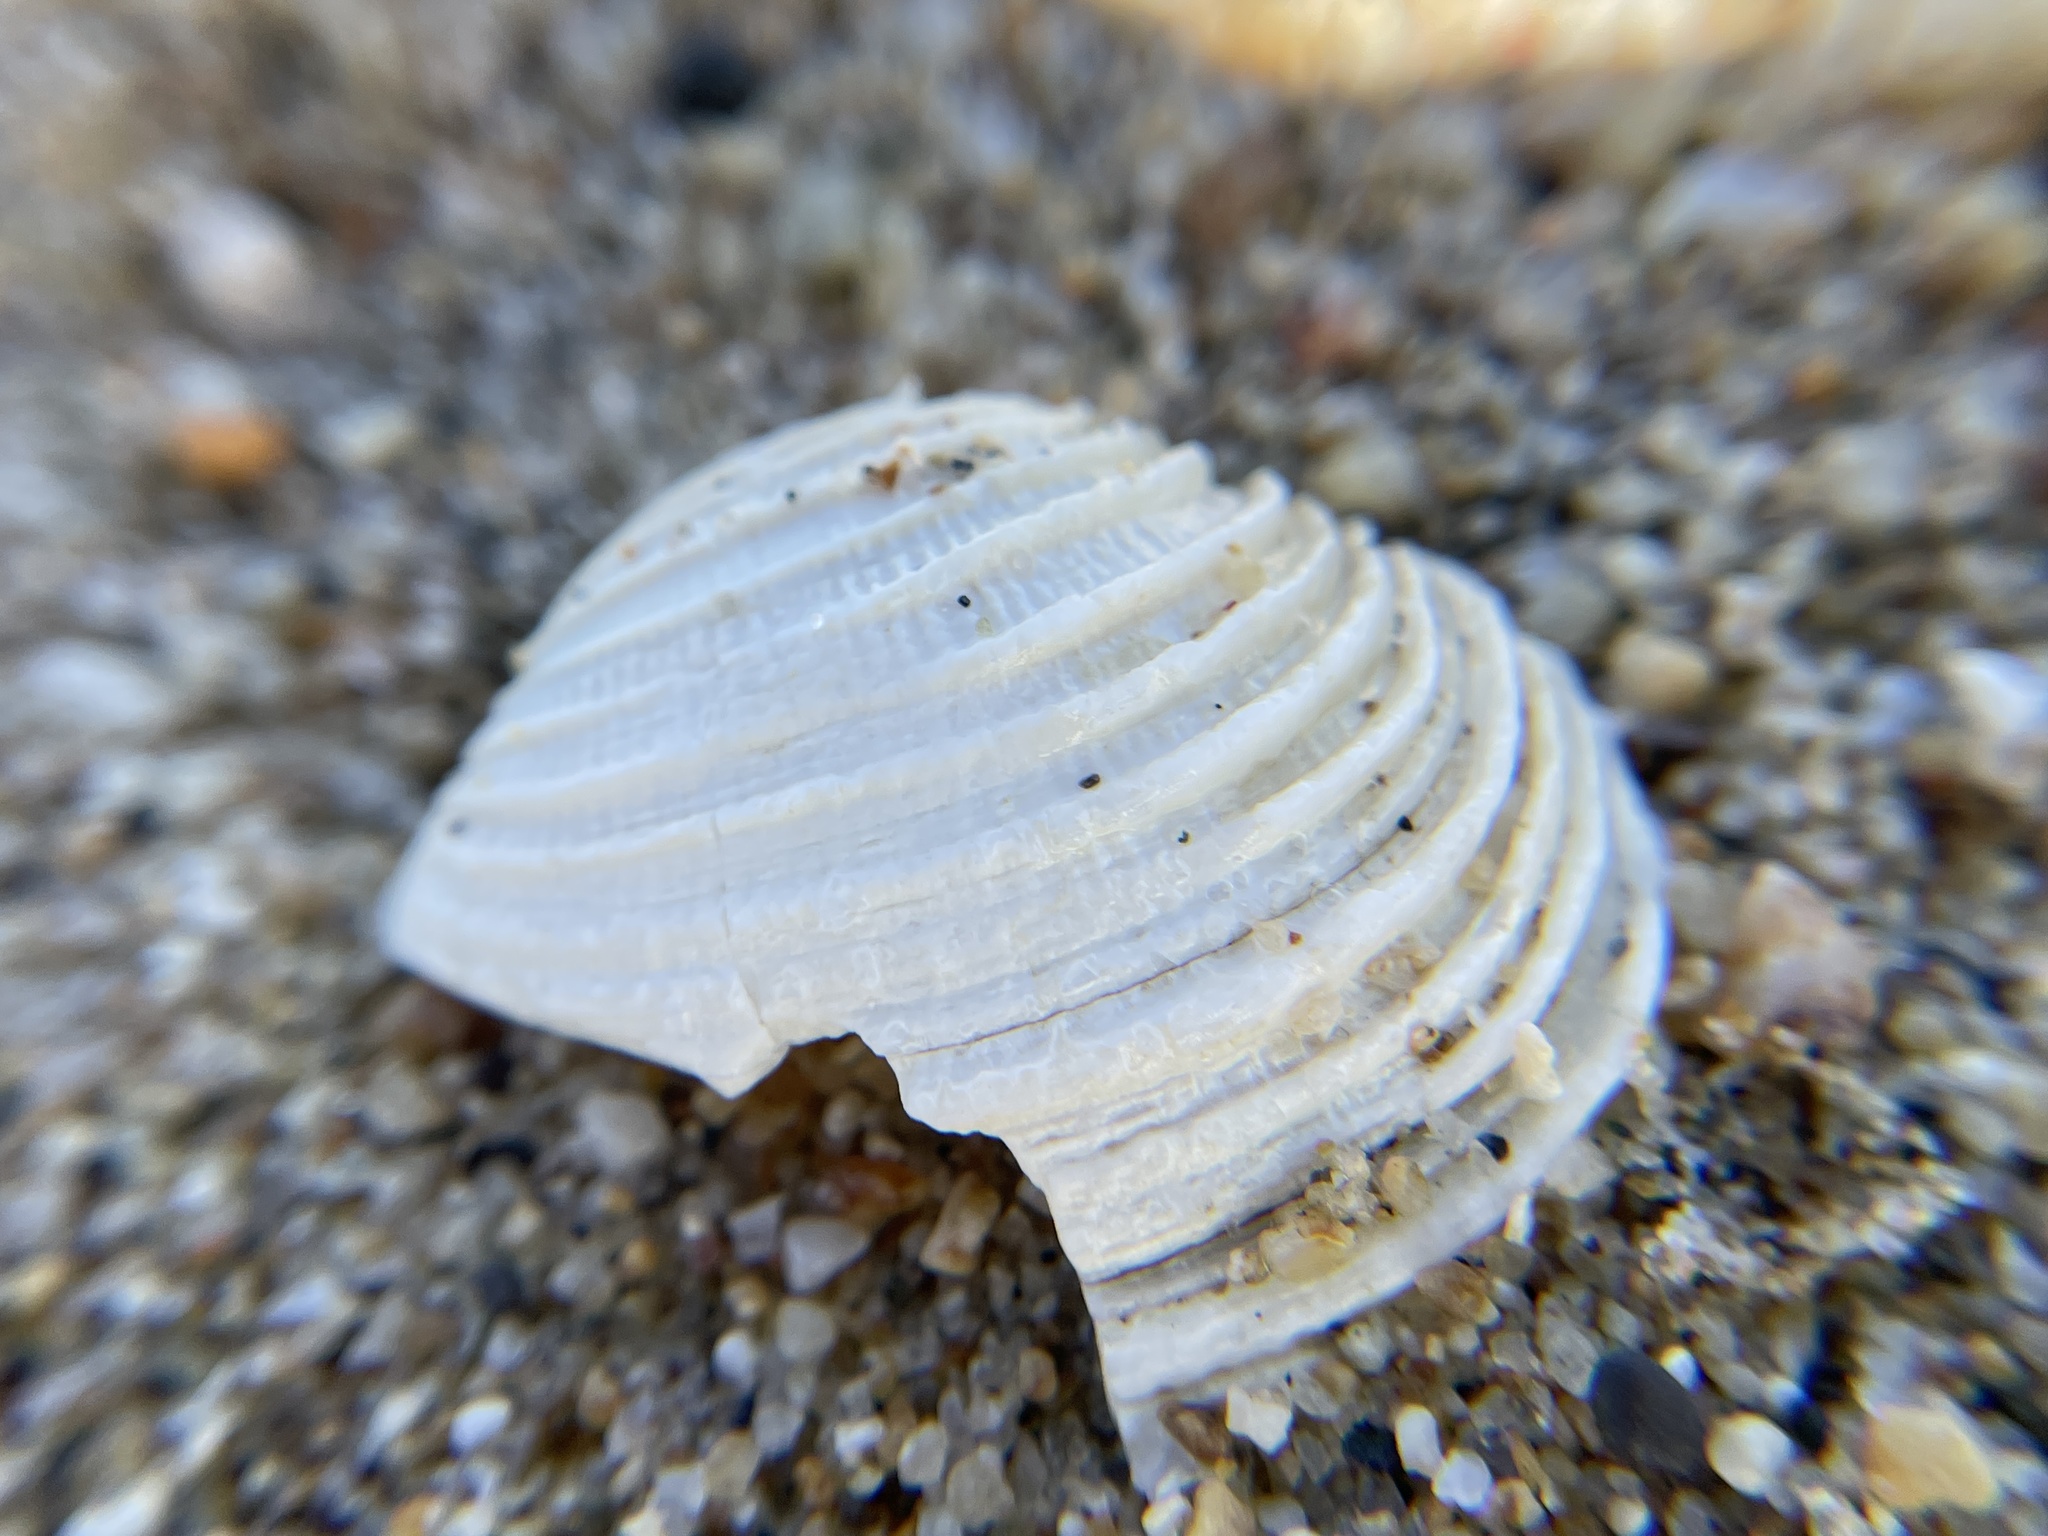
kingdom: Animalia
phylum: Mollusca
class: Bivalvia
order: Venerida
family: Veneridae
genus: Irusella
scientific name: Irusella lamellifera
